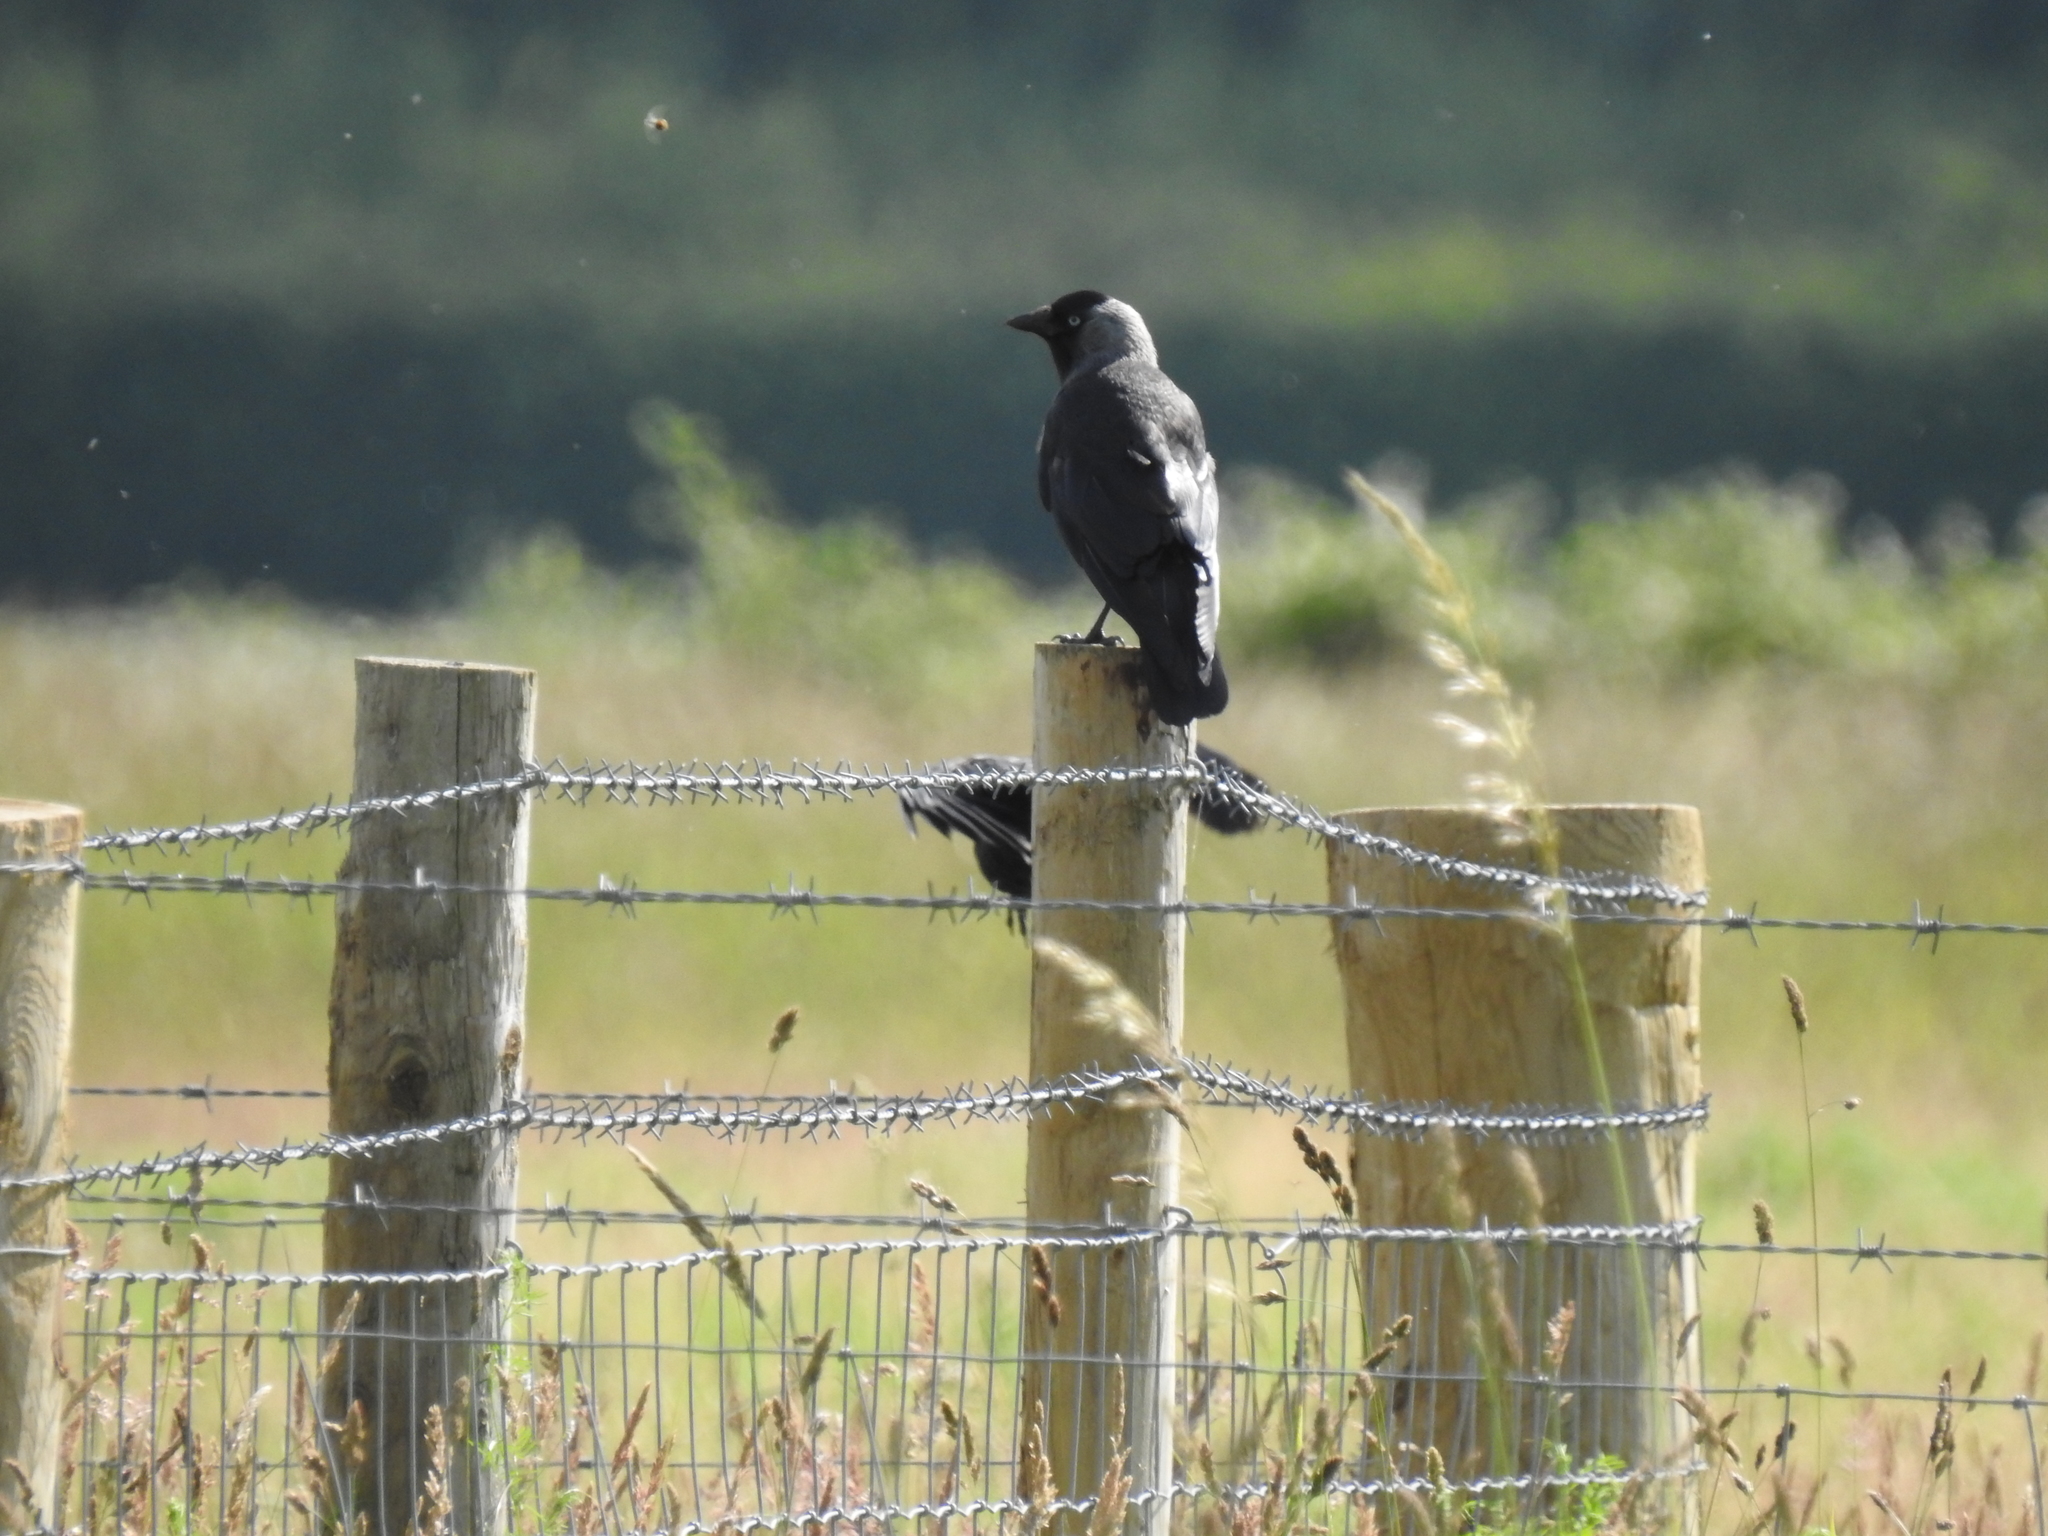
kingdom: Animalia
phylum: Chordata
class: Aves
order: Passeriformes
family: Corvidae
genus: Coloeus
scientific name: Coloeus monedula
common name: Western jackdaw
